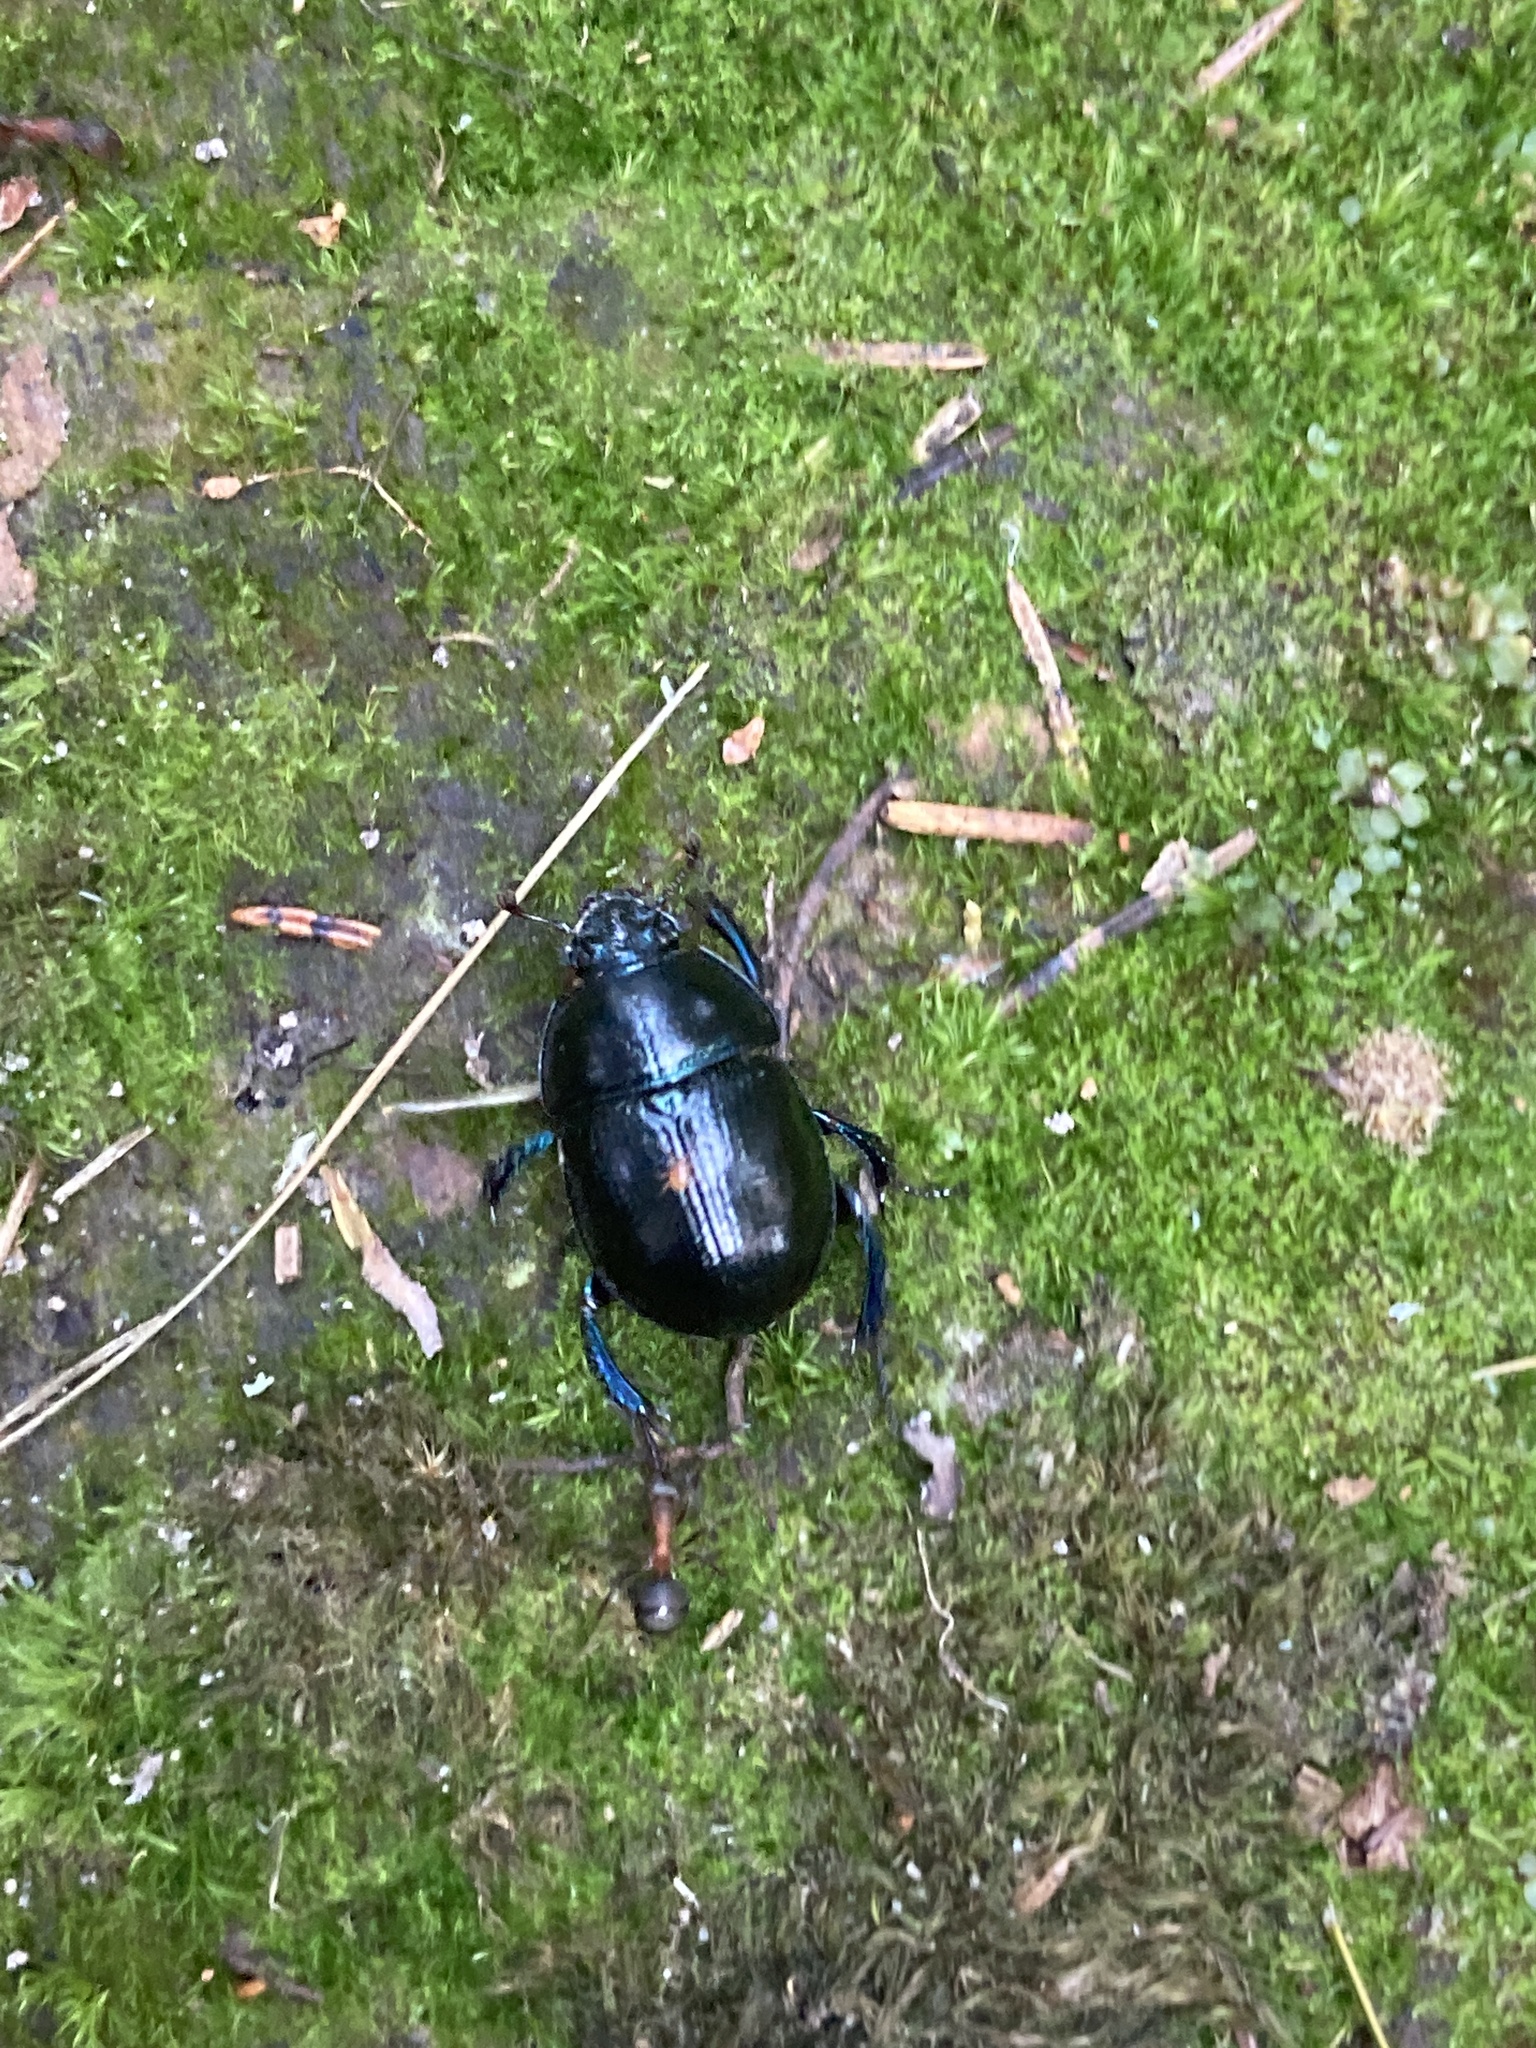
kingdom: Animalia
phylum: Arthropoda
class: Insecta
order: Coleoptera
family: Geotrupidae
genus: Anoplotrupes
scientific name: Anoplotrupes stercorosus
